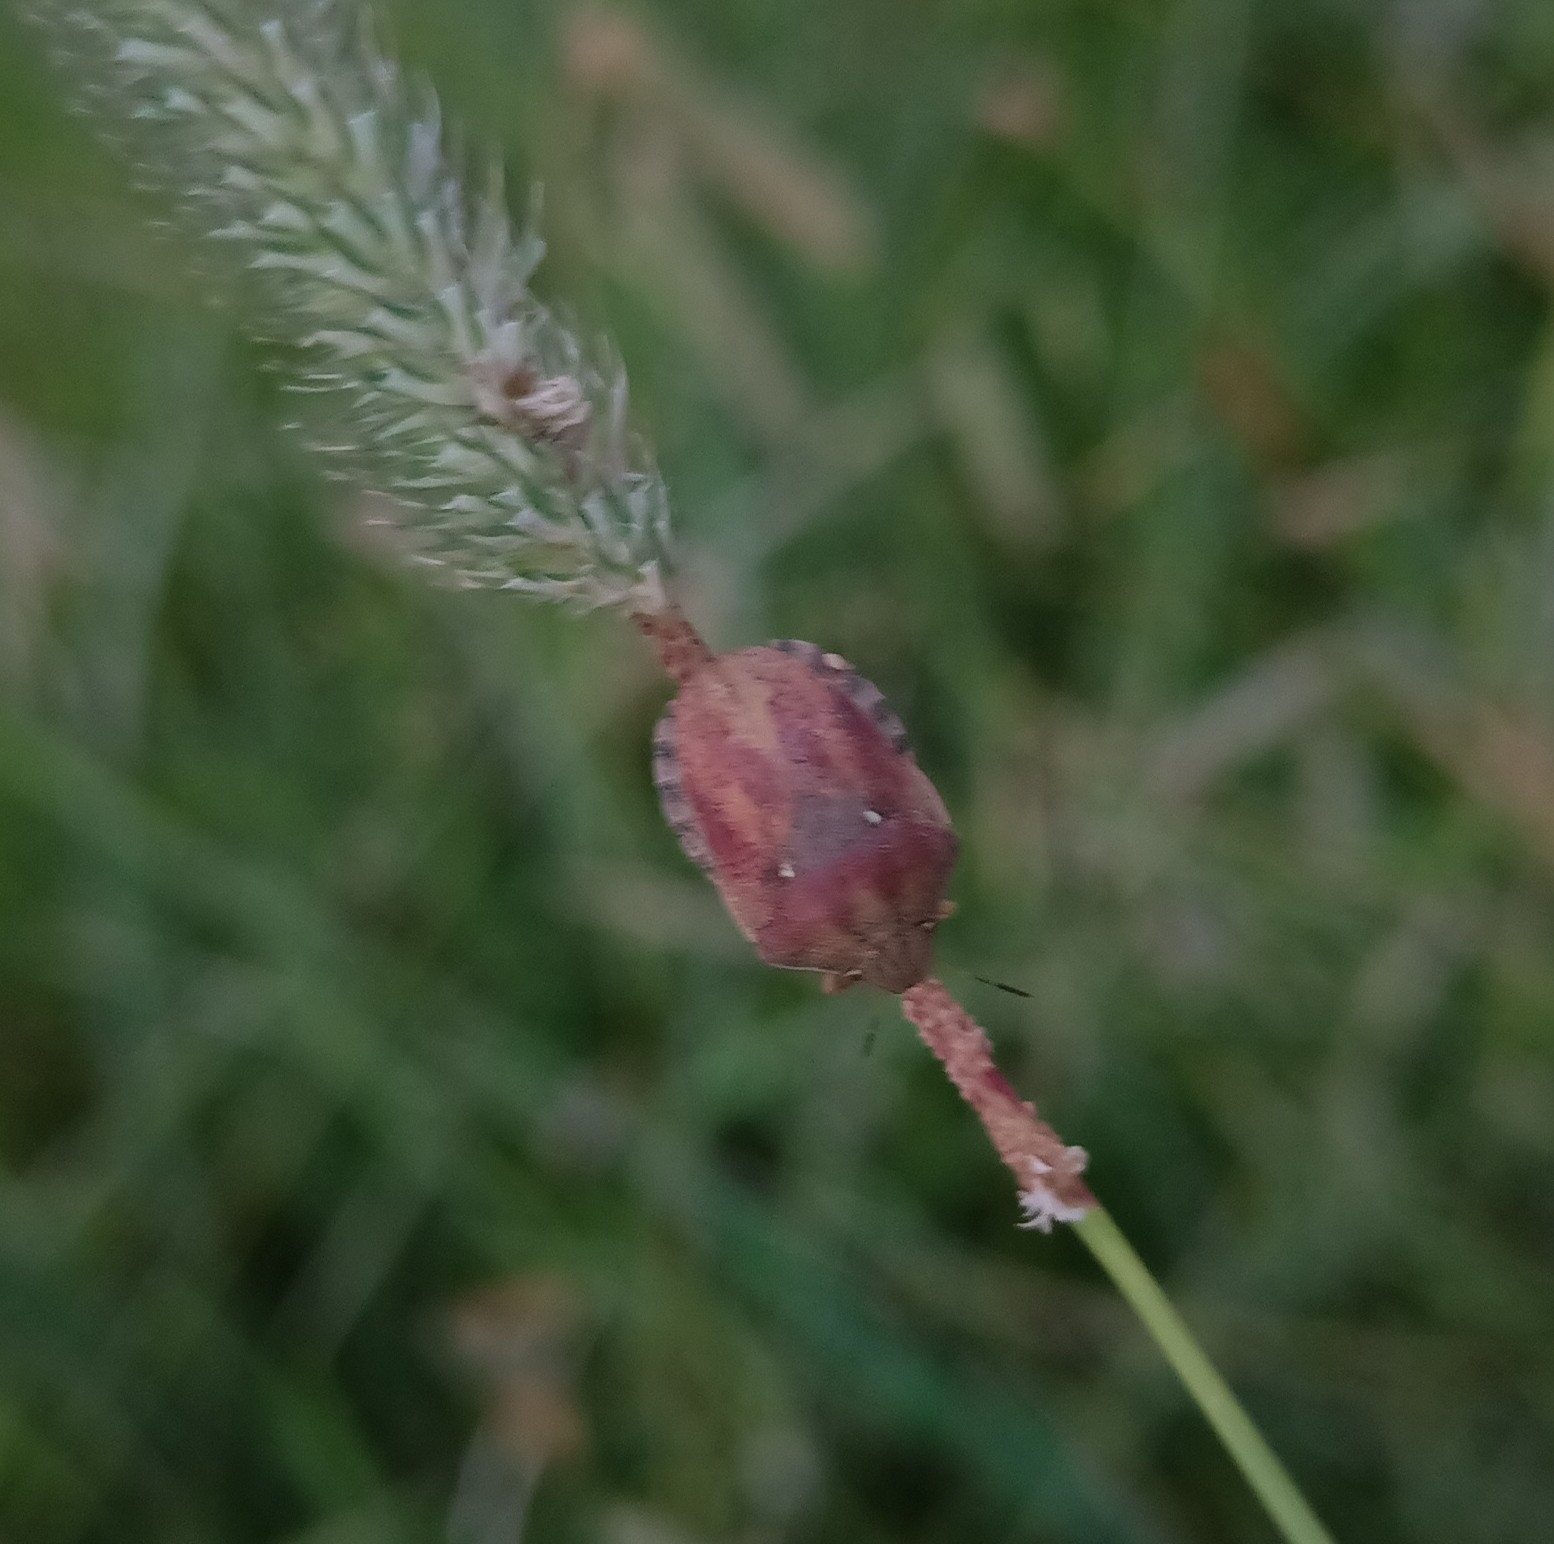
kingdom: Animalia
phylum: Arthropoda
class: Insecta
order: Hemiptera
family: Scutelleridae
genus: Eurygaster
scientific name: Eurygaster testudinaria
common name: Tortoise bug
